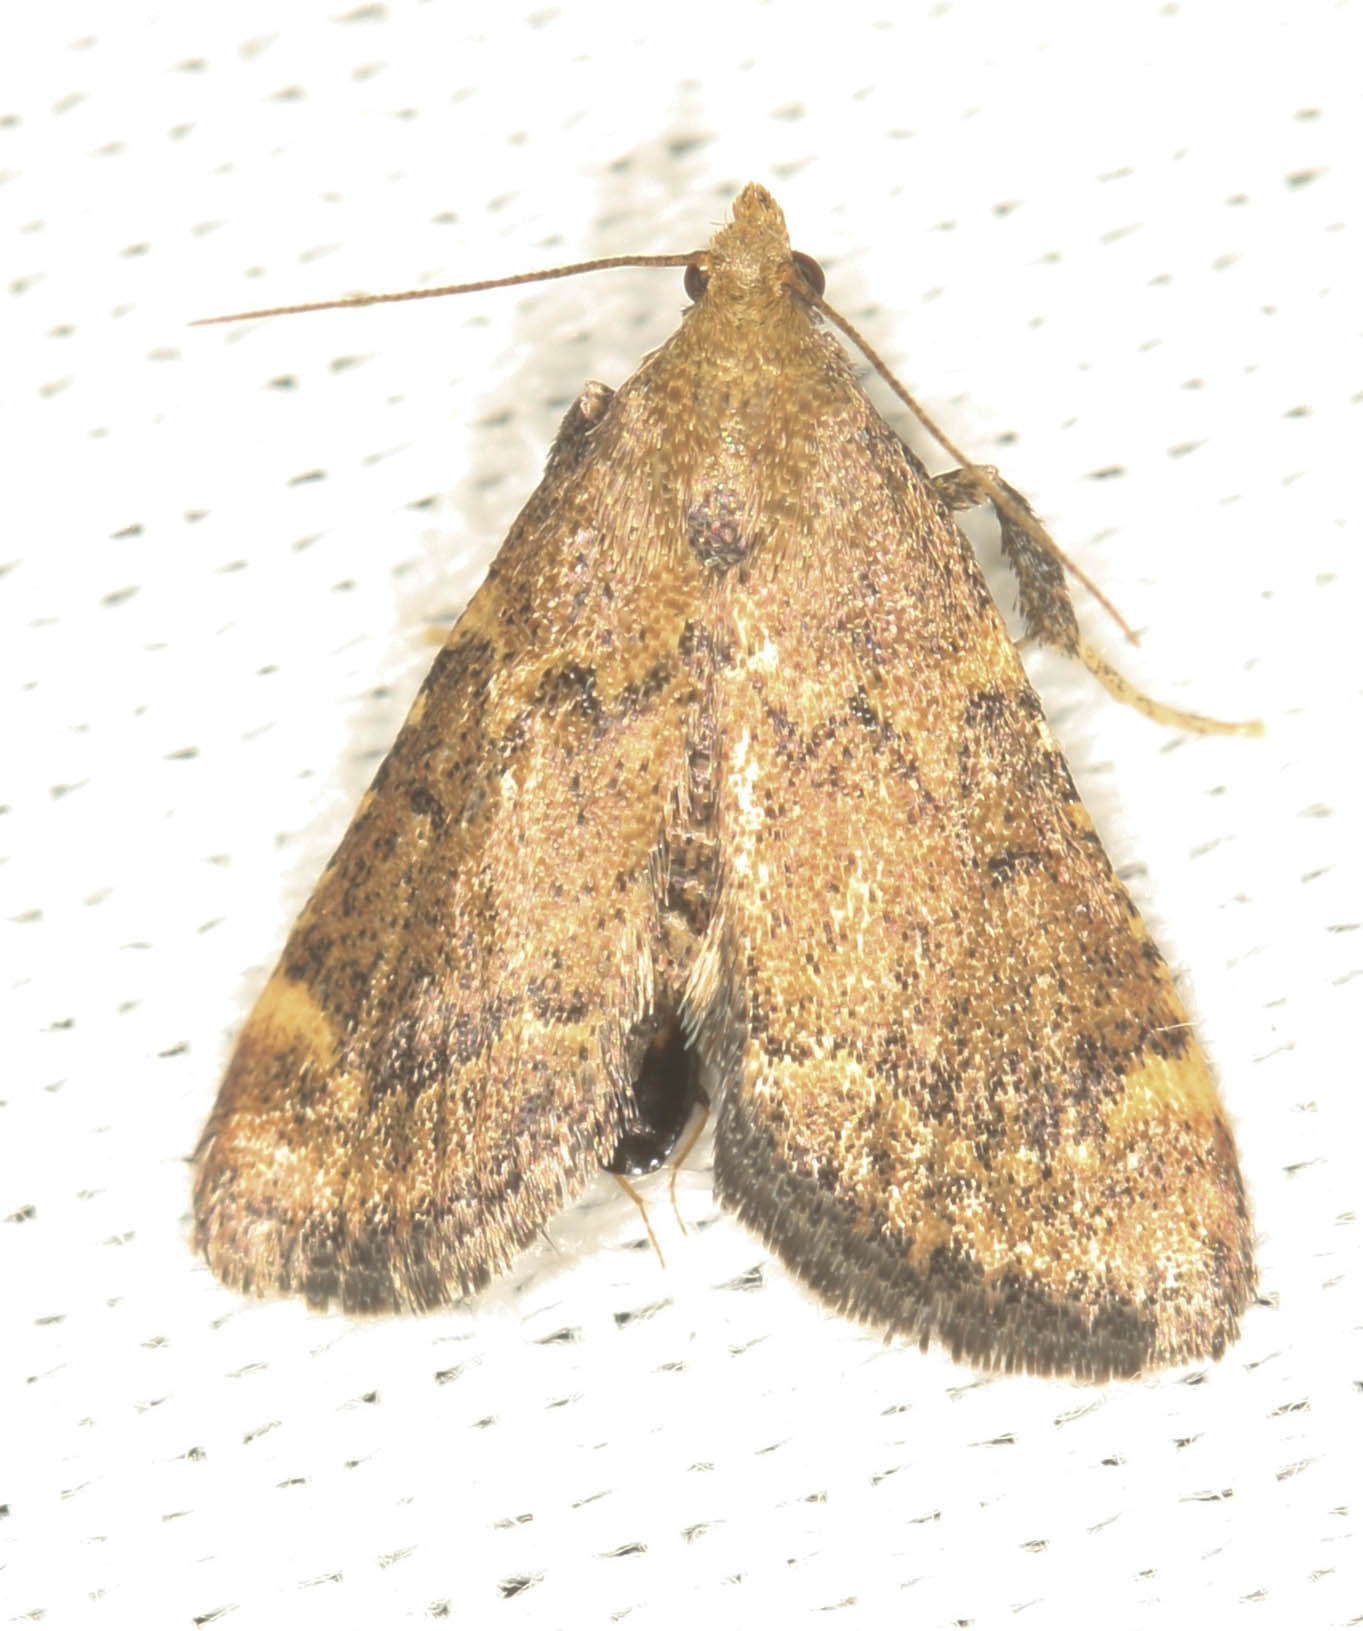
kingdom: Animalia
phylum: Arthropoda
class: Insecta
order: Lepidoptera
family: Pyralidae
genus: Hypsopygia
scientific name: Hypsopygia phoezalis
